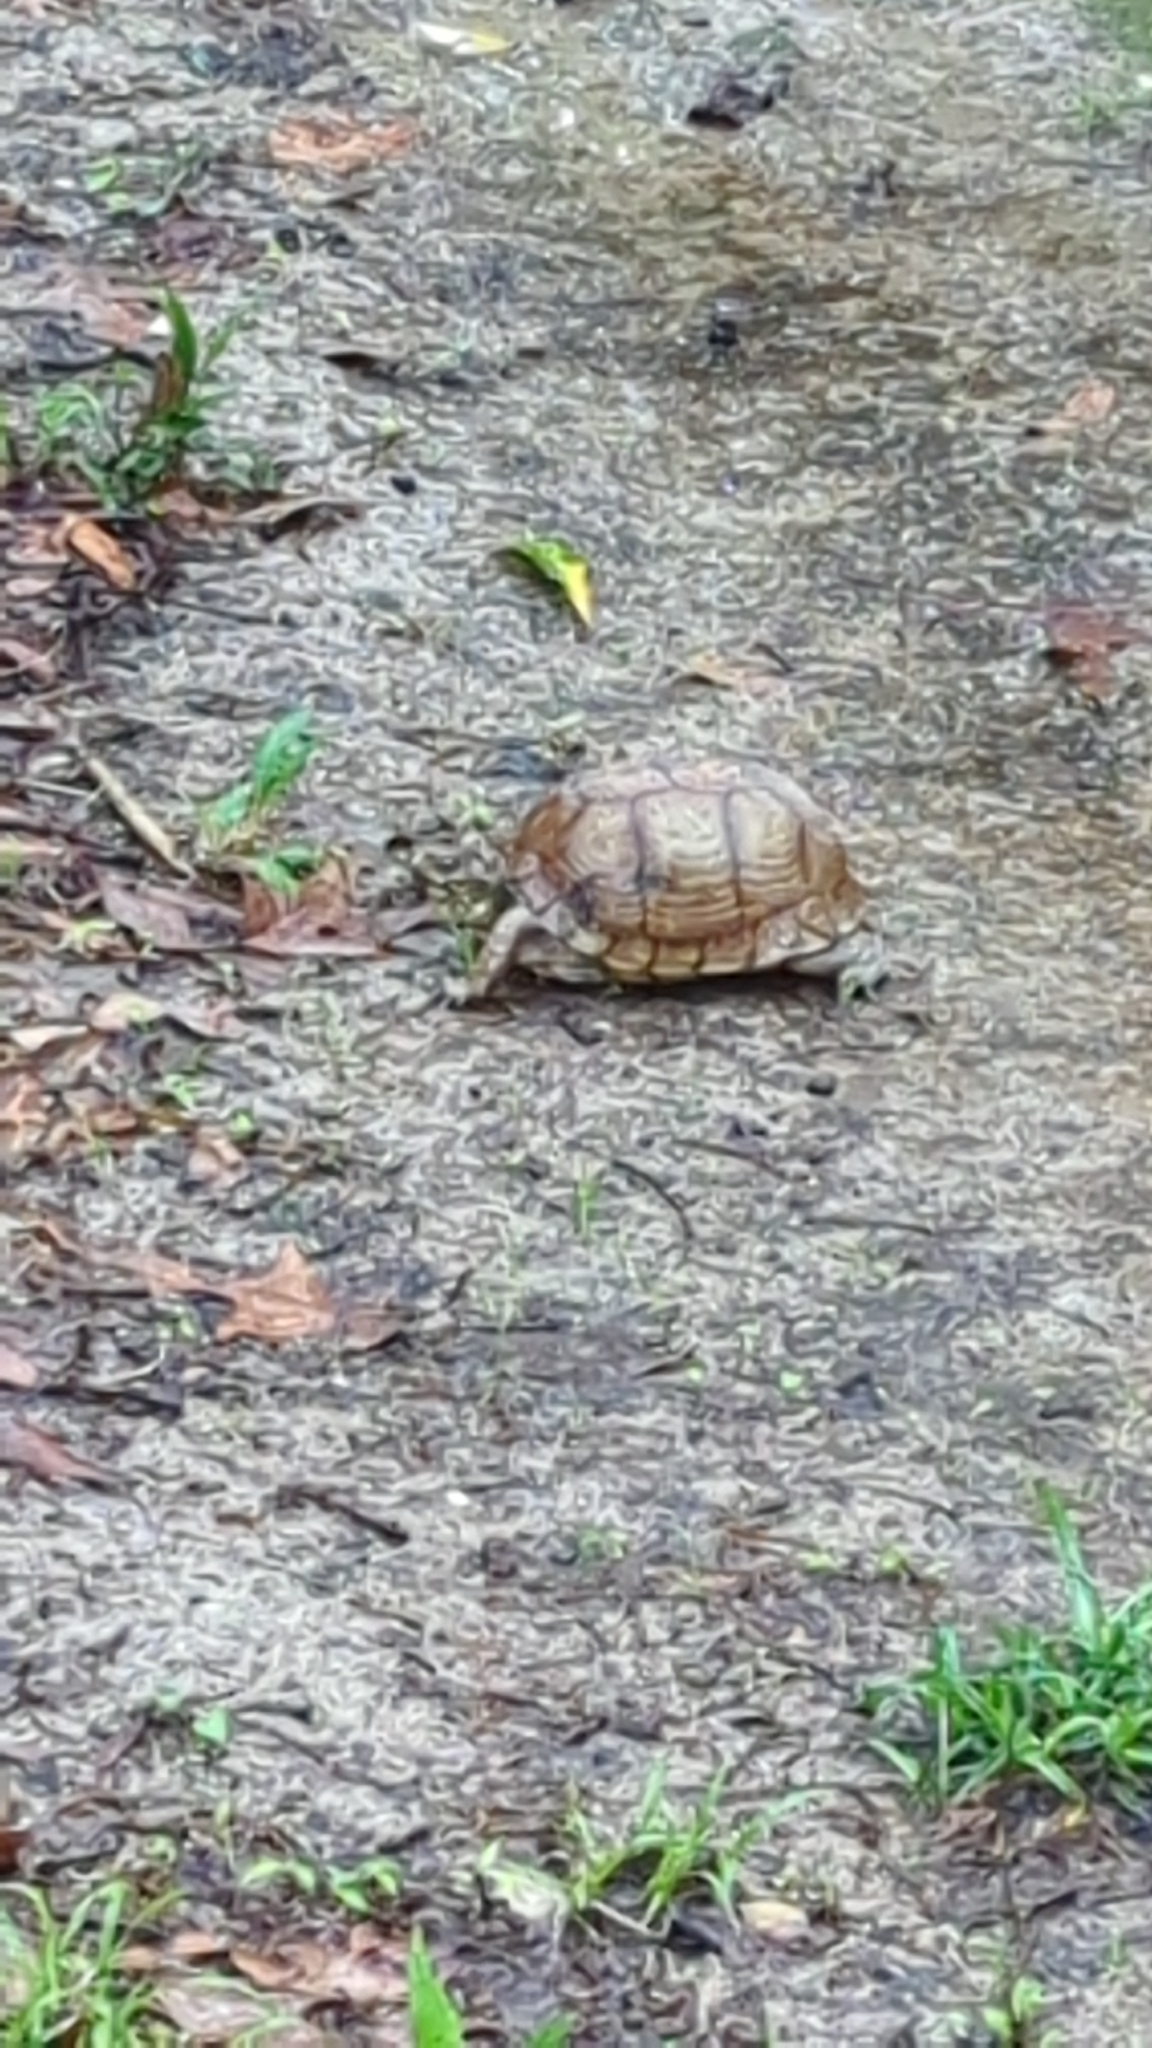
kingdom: Animalia
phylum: Chordata
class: Testudines
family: Emydidae
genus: Terrapene
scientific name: Terrapene carolina
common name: Common box turtle
